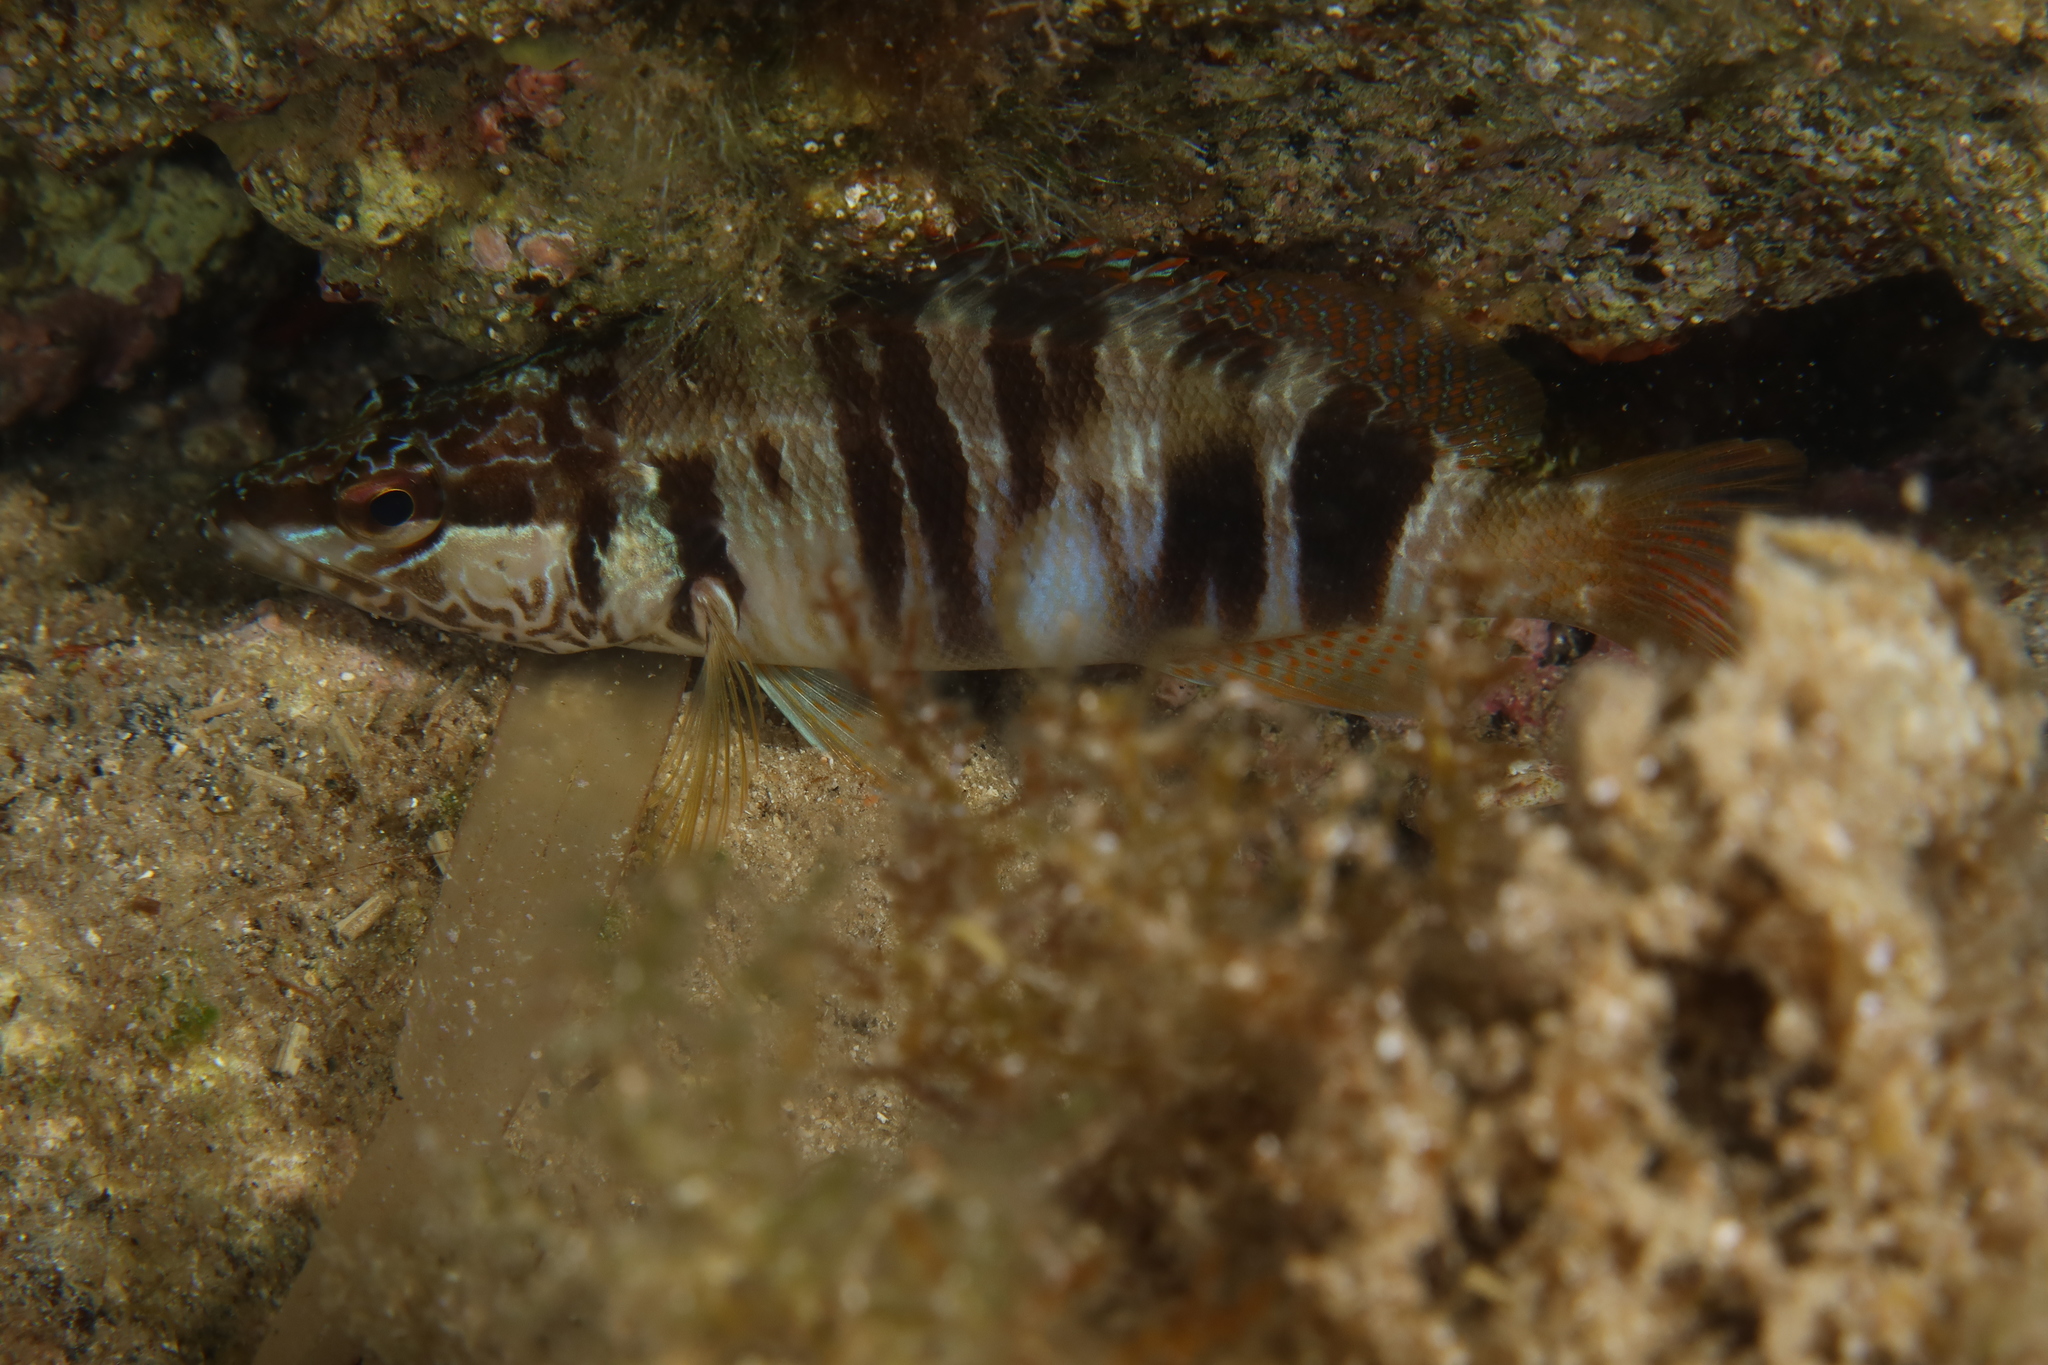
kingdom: Animalia
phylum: Chordata
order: Perciformes
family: Serranidae
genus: Serranus
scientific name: Serranus scriba
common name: Painted comber
